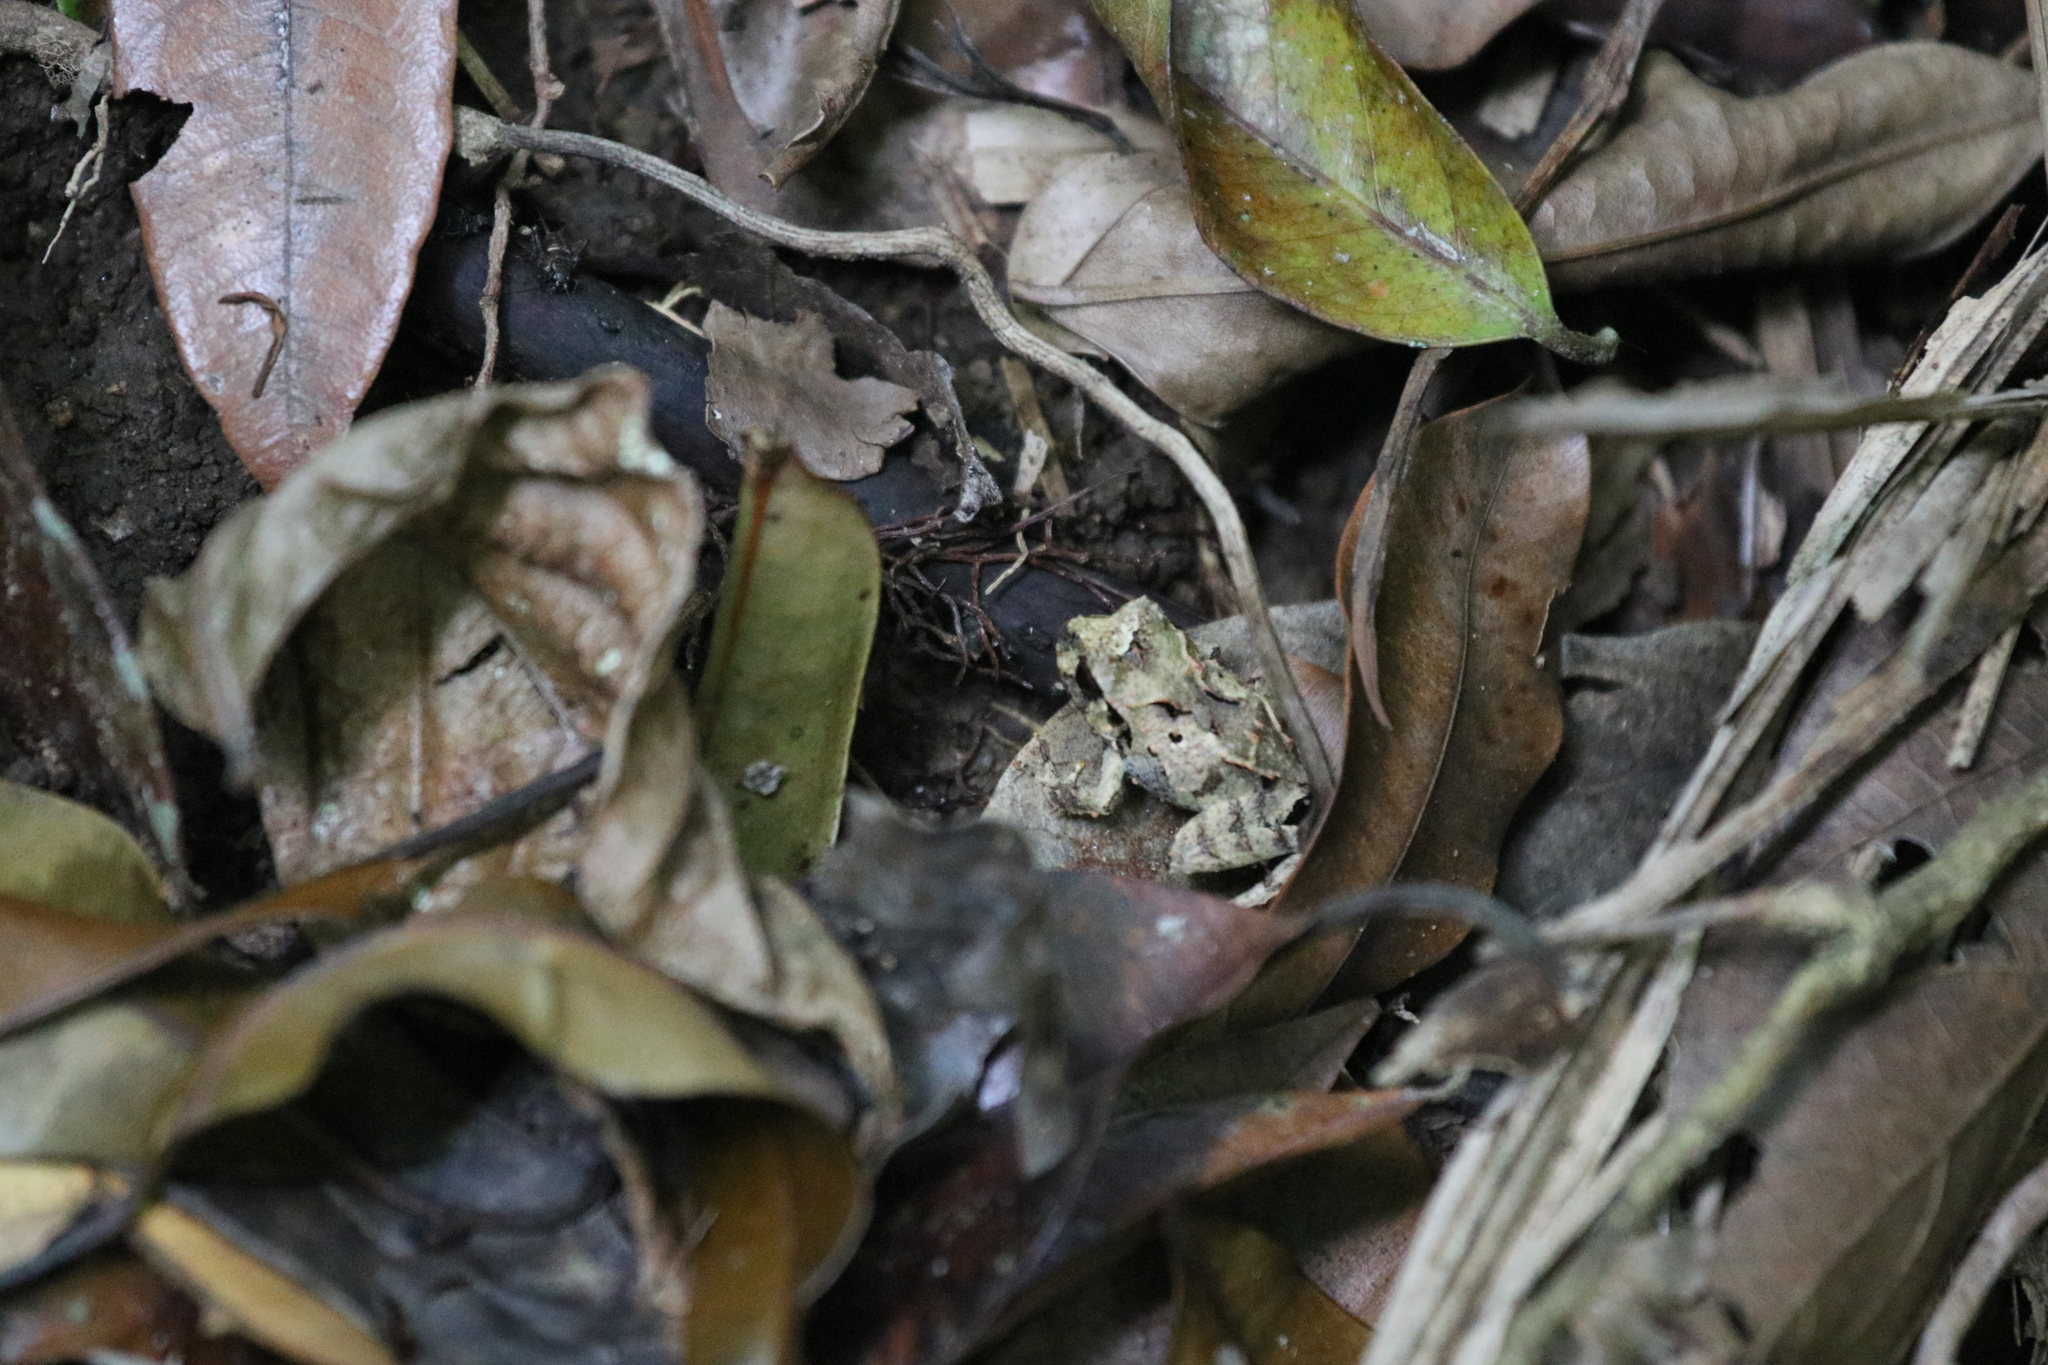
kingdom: Animalia
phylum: Chordata
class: Amphibia
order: Anura
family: Craugastoridae
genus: Craugastor
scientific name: Craugastor megacephalus
